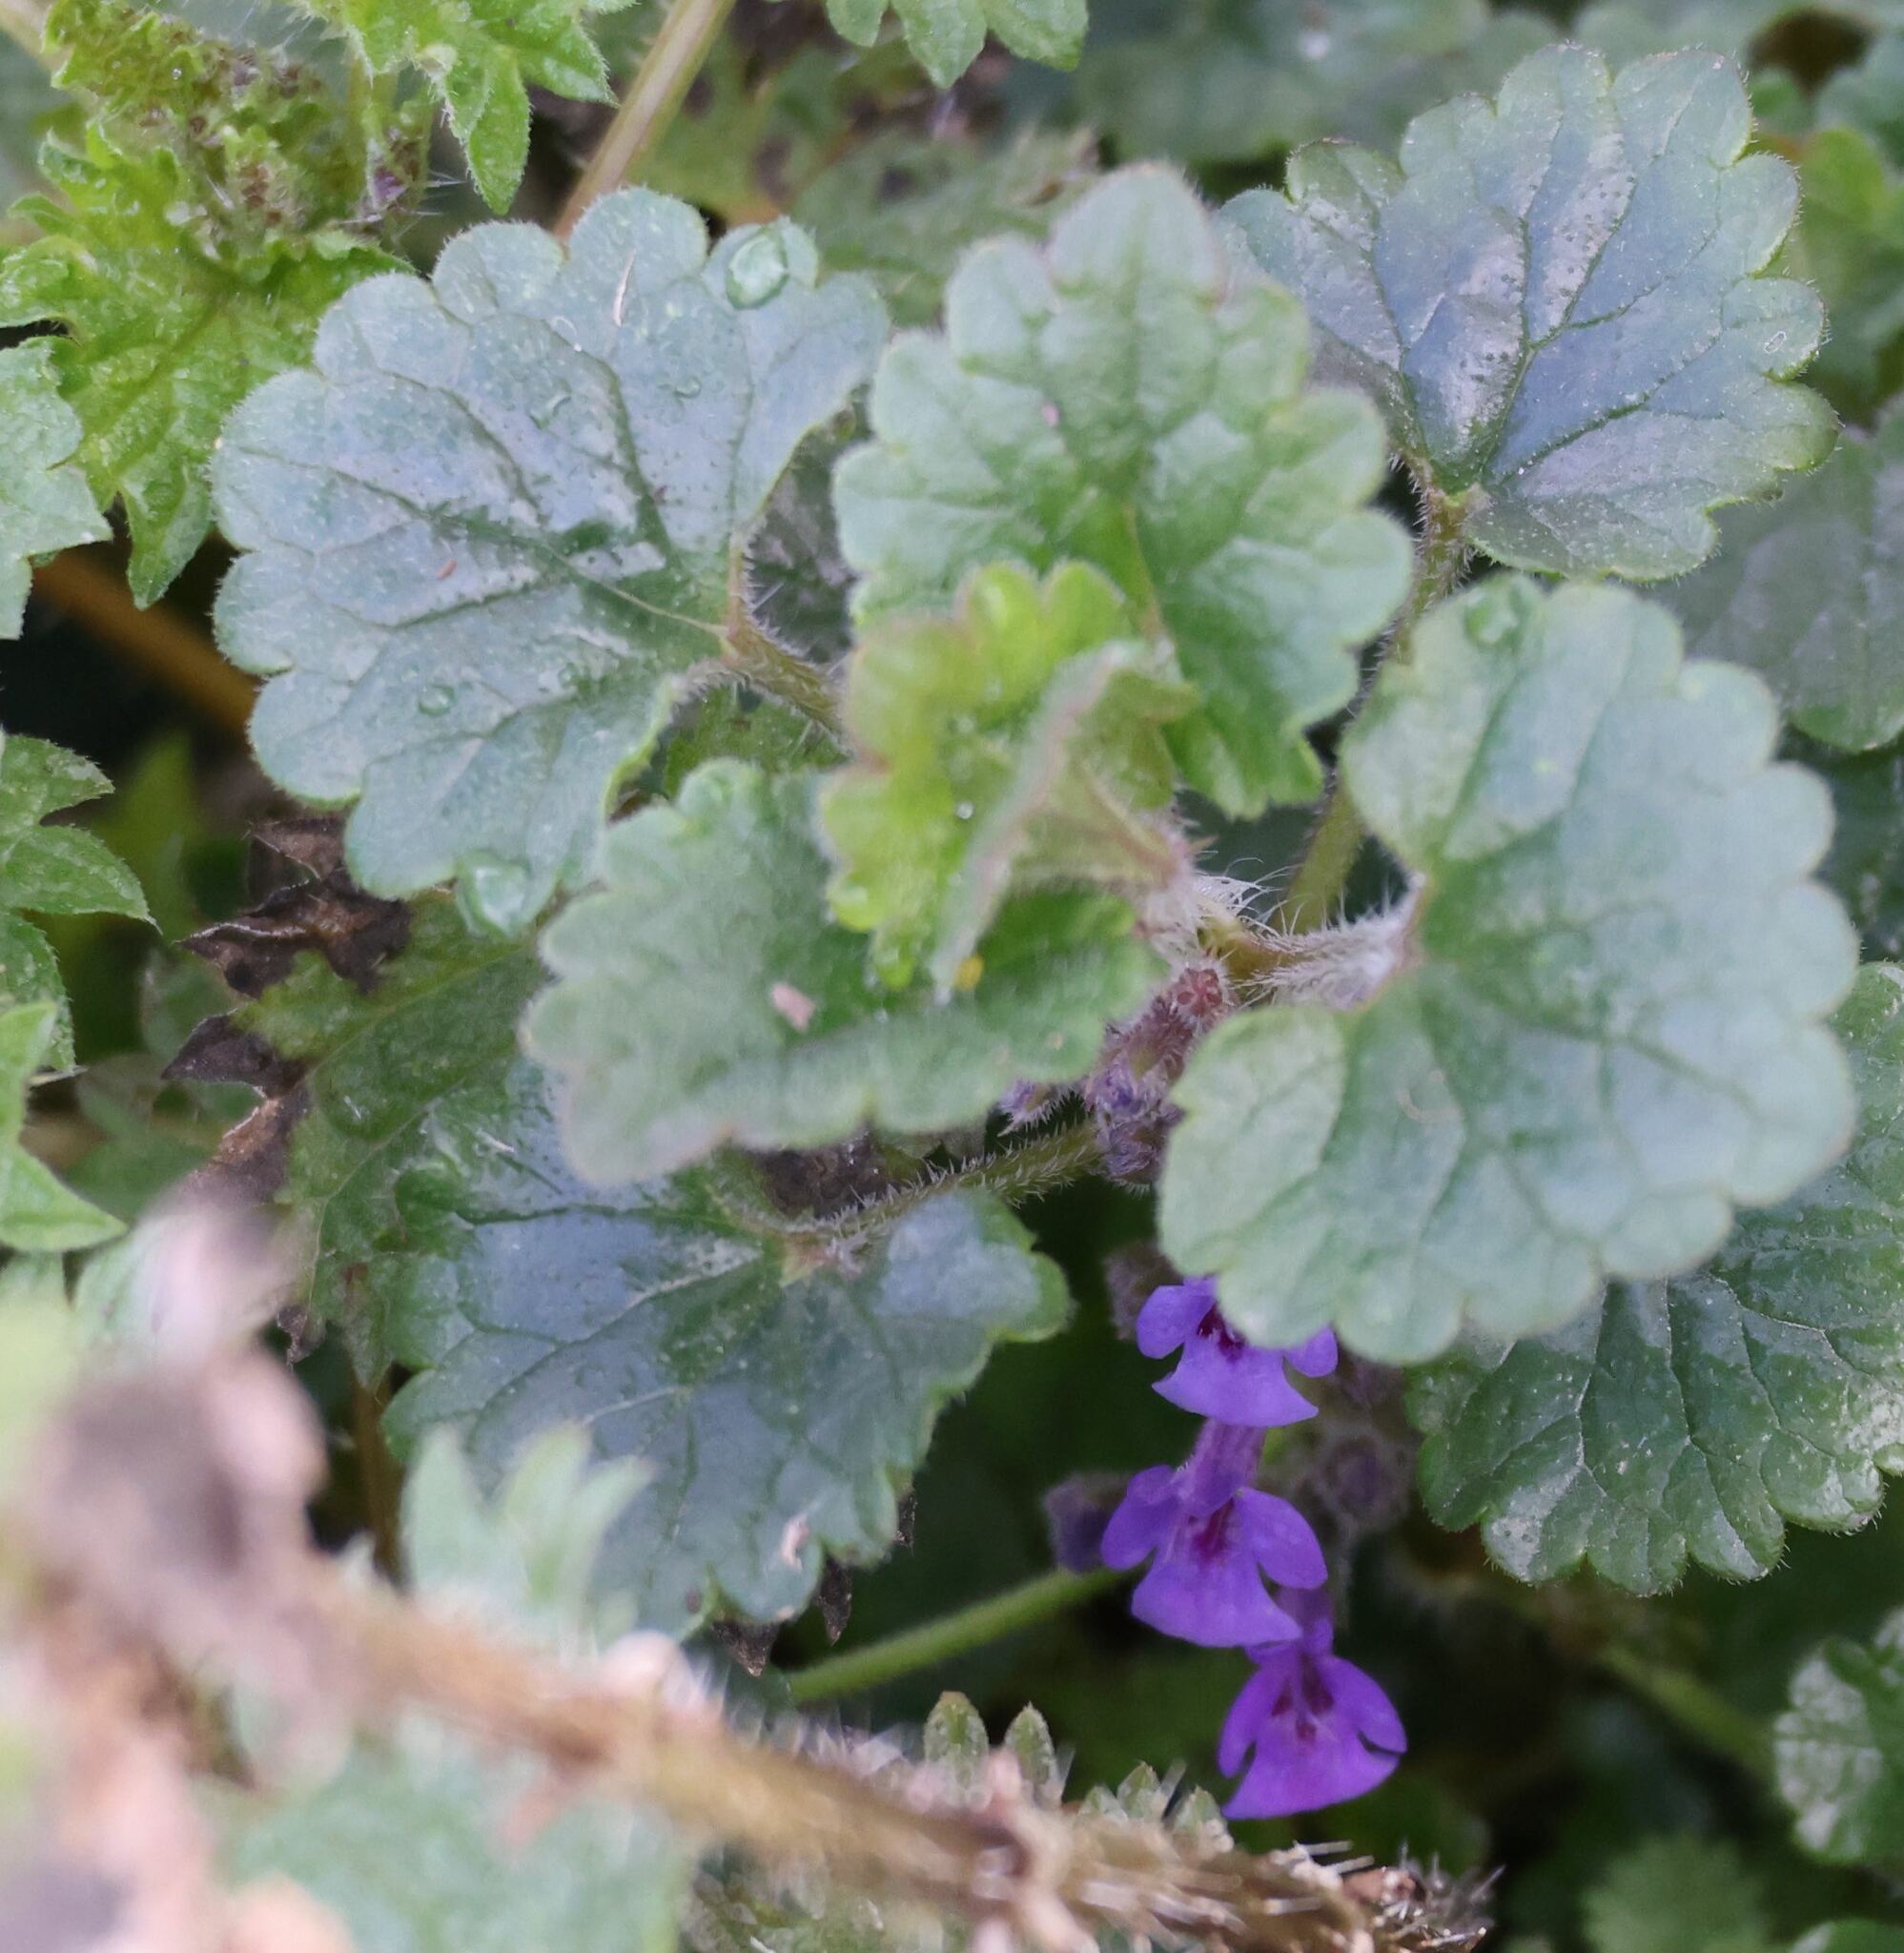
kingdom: Plantae
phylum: Tracheophyta
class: Magnoliopsida
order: Lamiales
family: Lamiaceae
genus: Glechoma
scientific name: Glechoma hederacea
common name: Ground ivy
